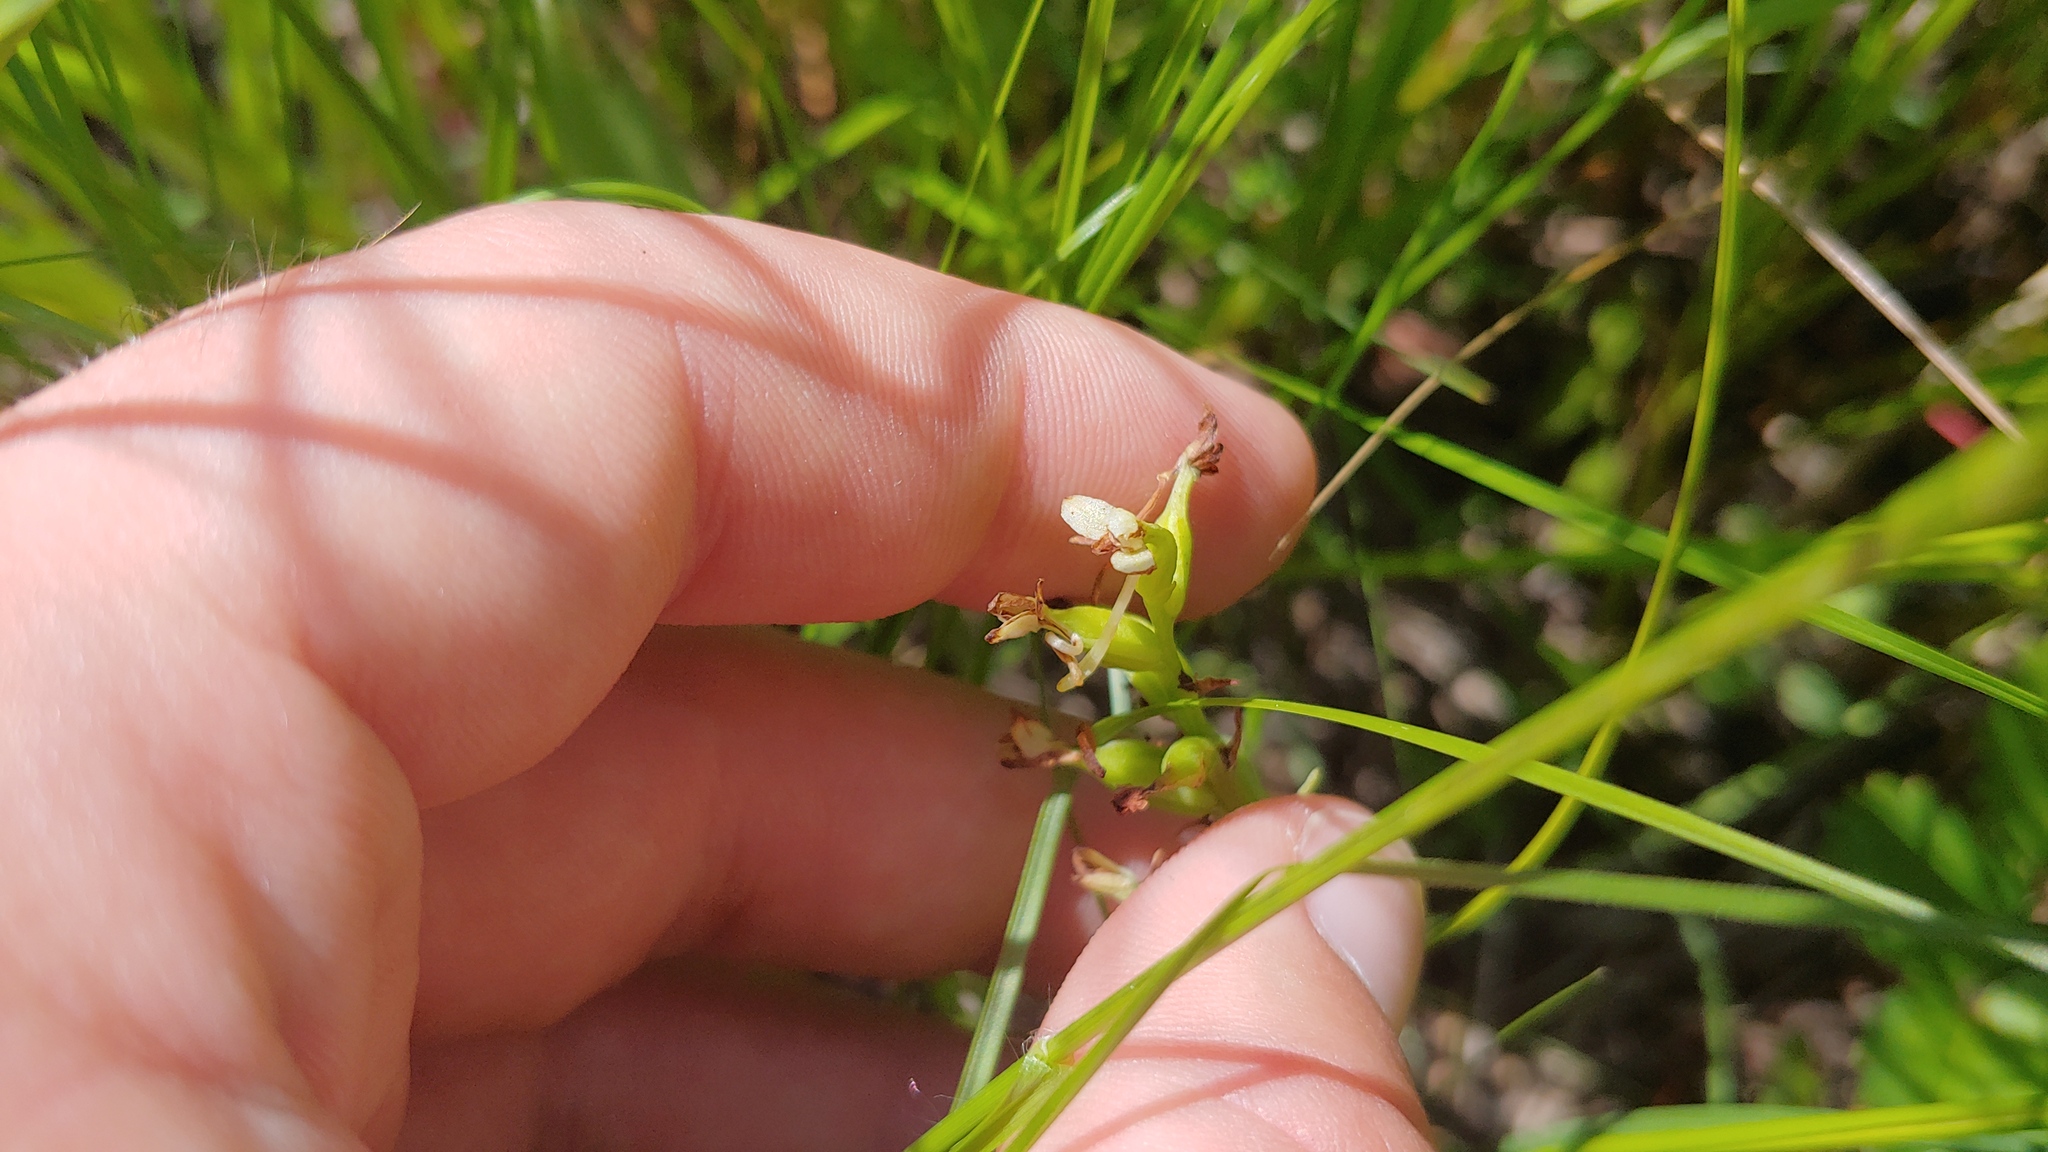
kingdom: Plantae
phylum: Tracheophyta
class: Liliopsida
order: Asparagales
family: Orchidaceae
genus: Platanthera
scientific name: Platanthera clavellata
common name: Club-spur orchid
